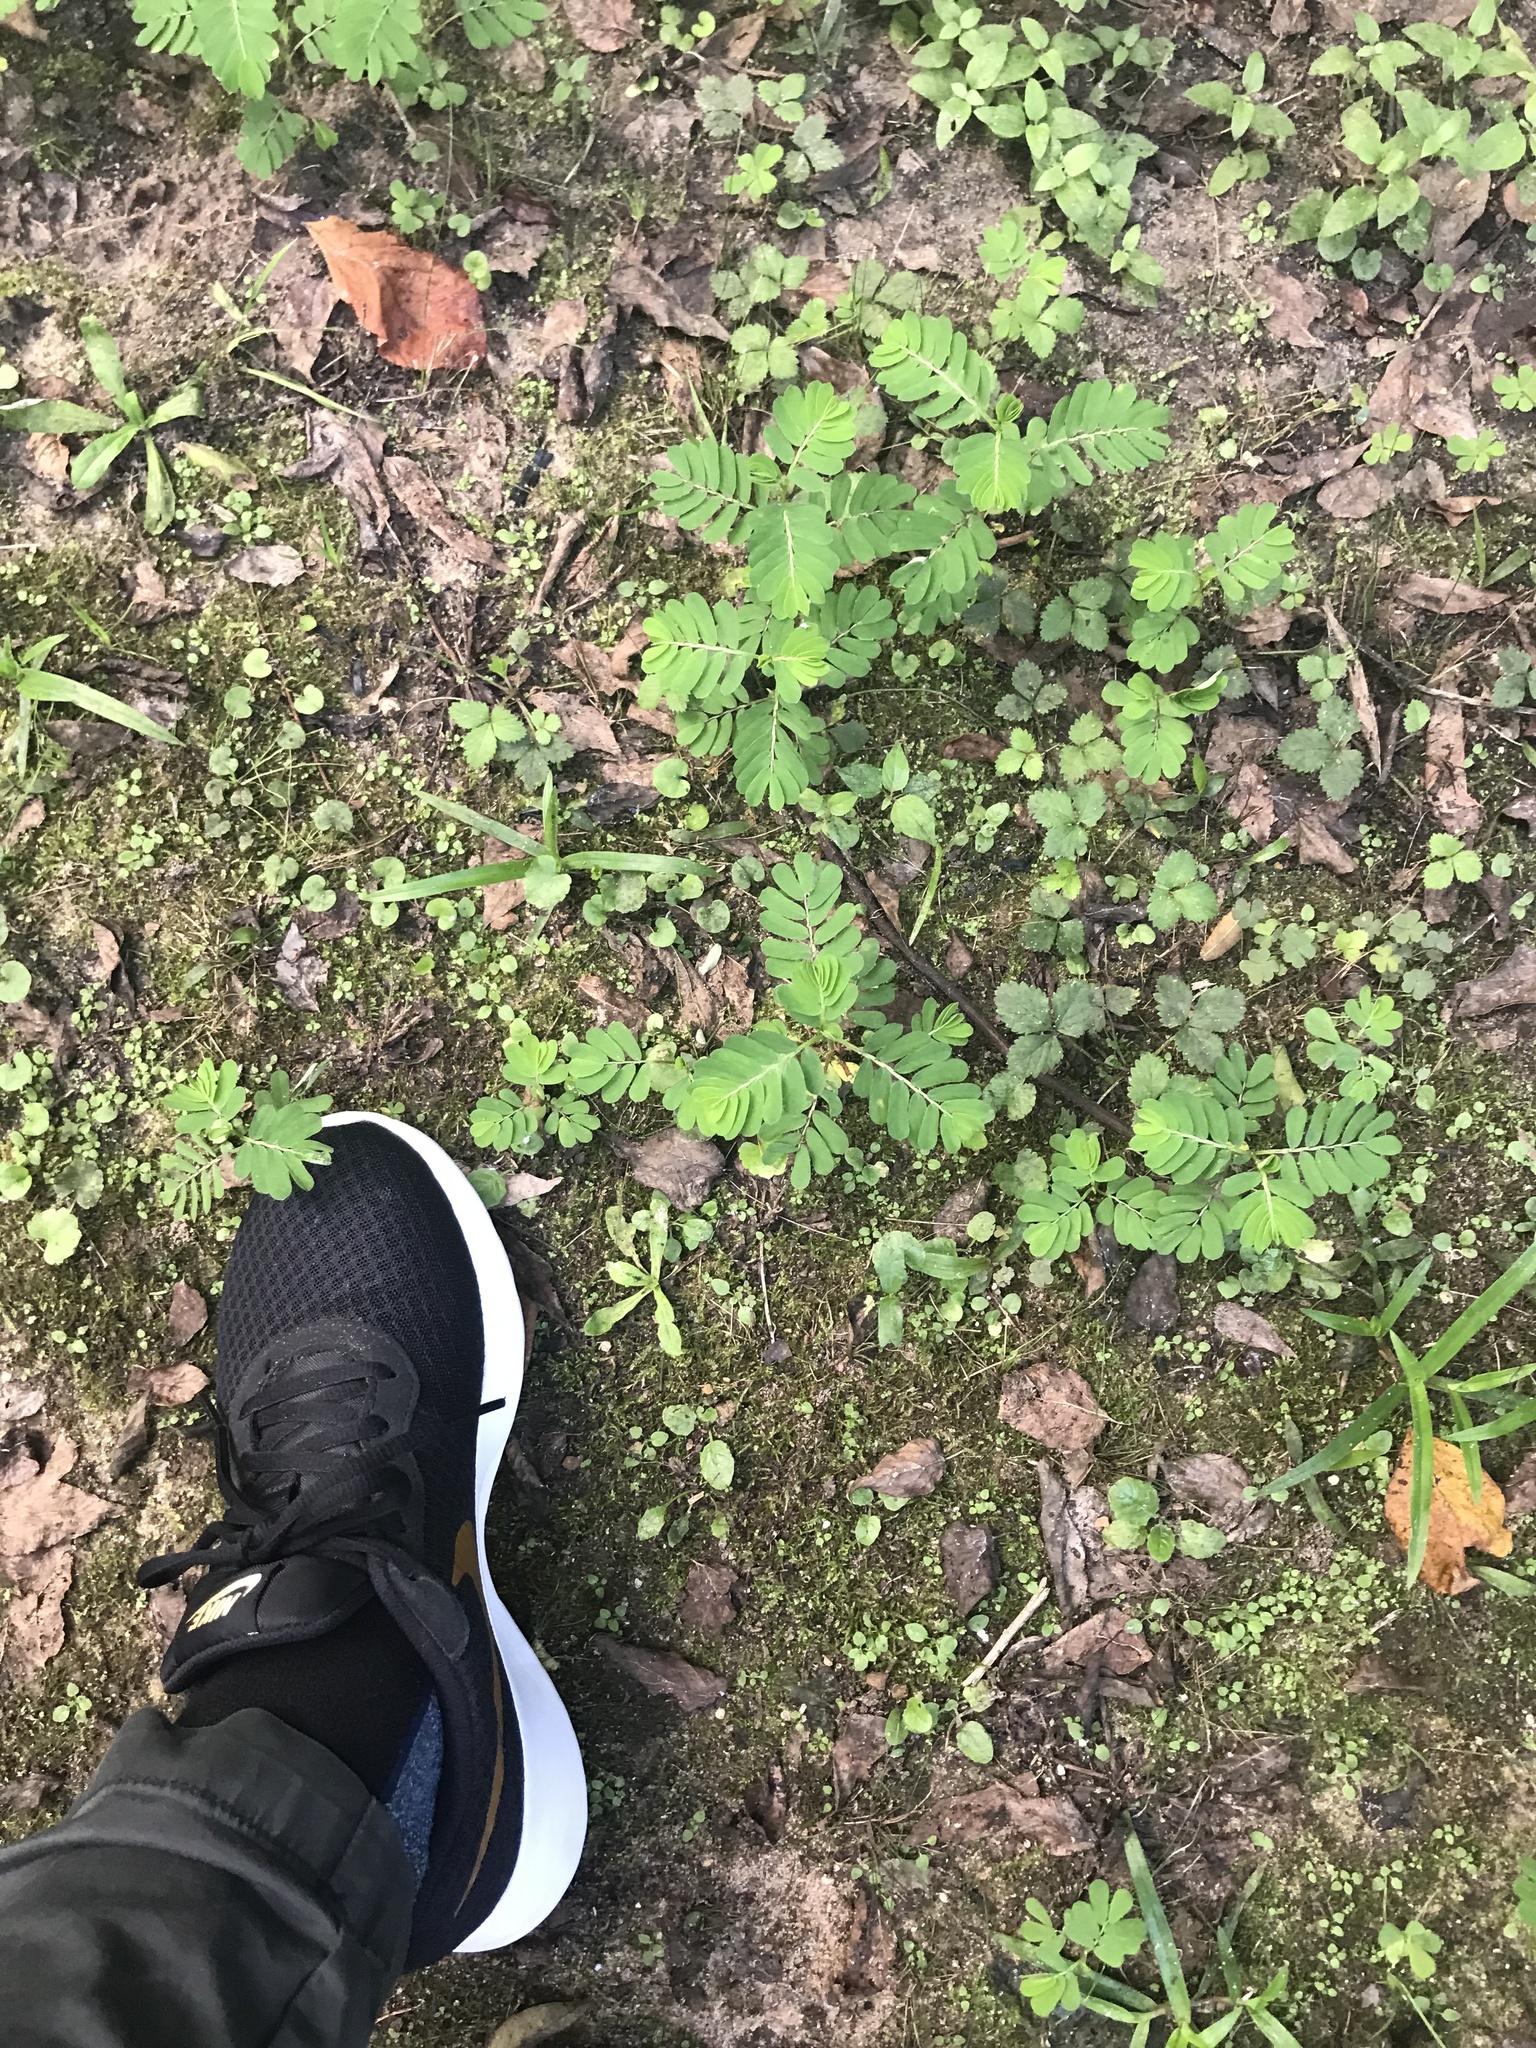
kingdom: Plantae
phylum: Tracheophyta
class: Magnoliopsida
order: Malpighiales
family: Phyllanthaceae
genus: Phyllanthus
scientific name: Phyllanthus urinaria
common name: Chamber bitter
